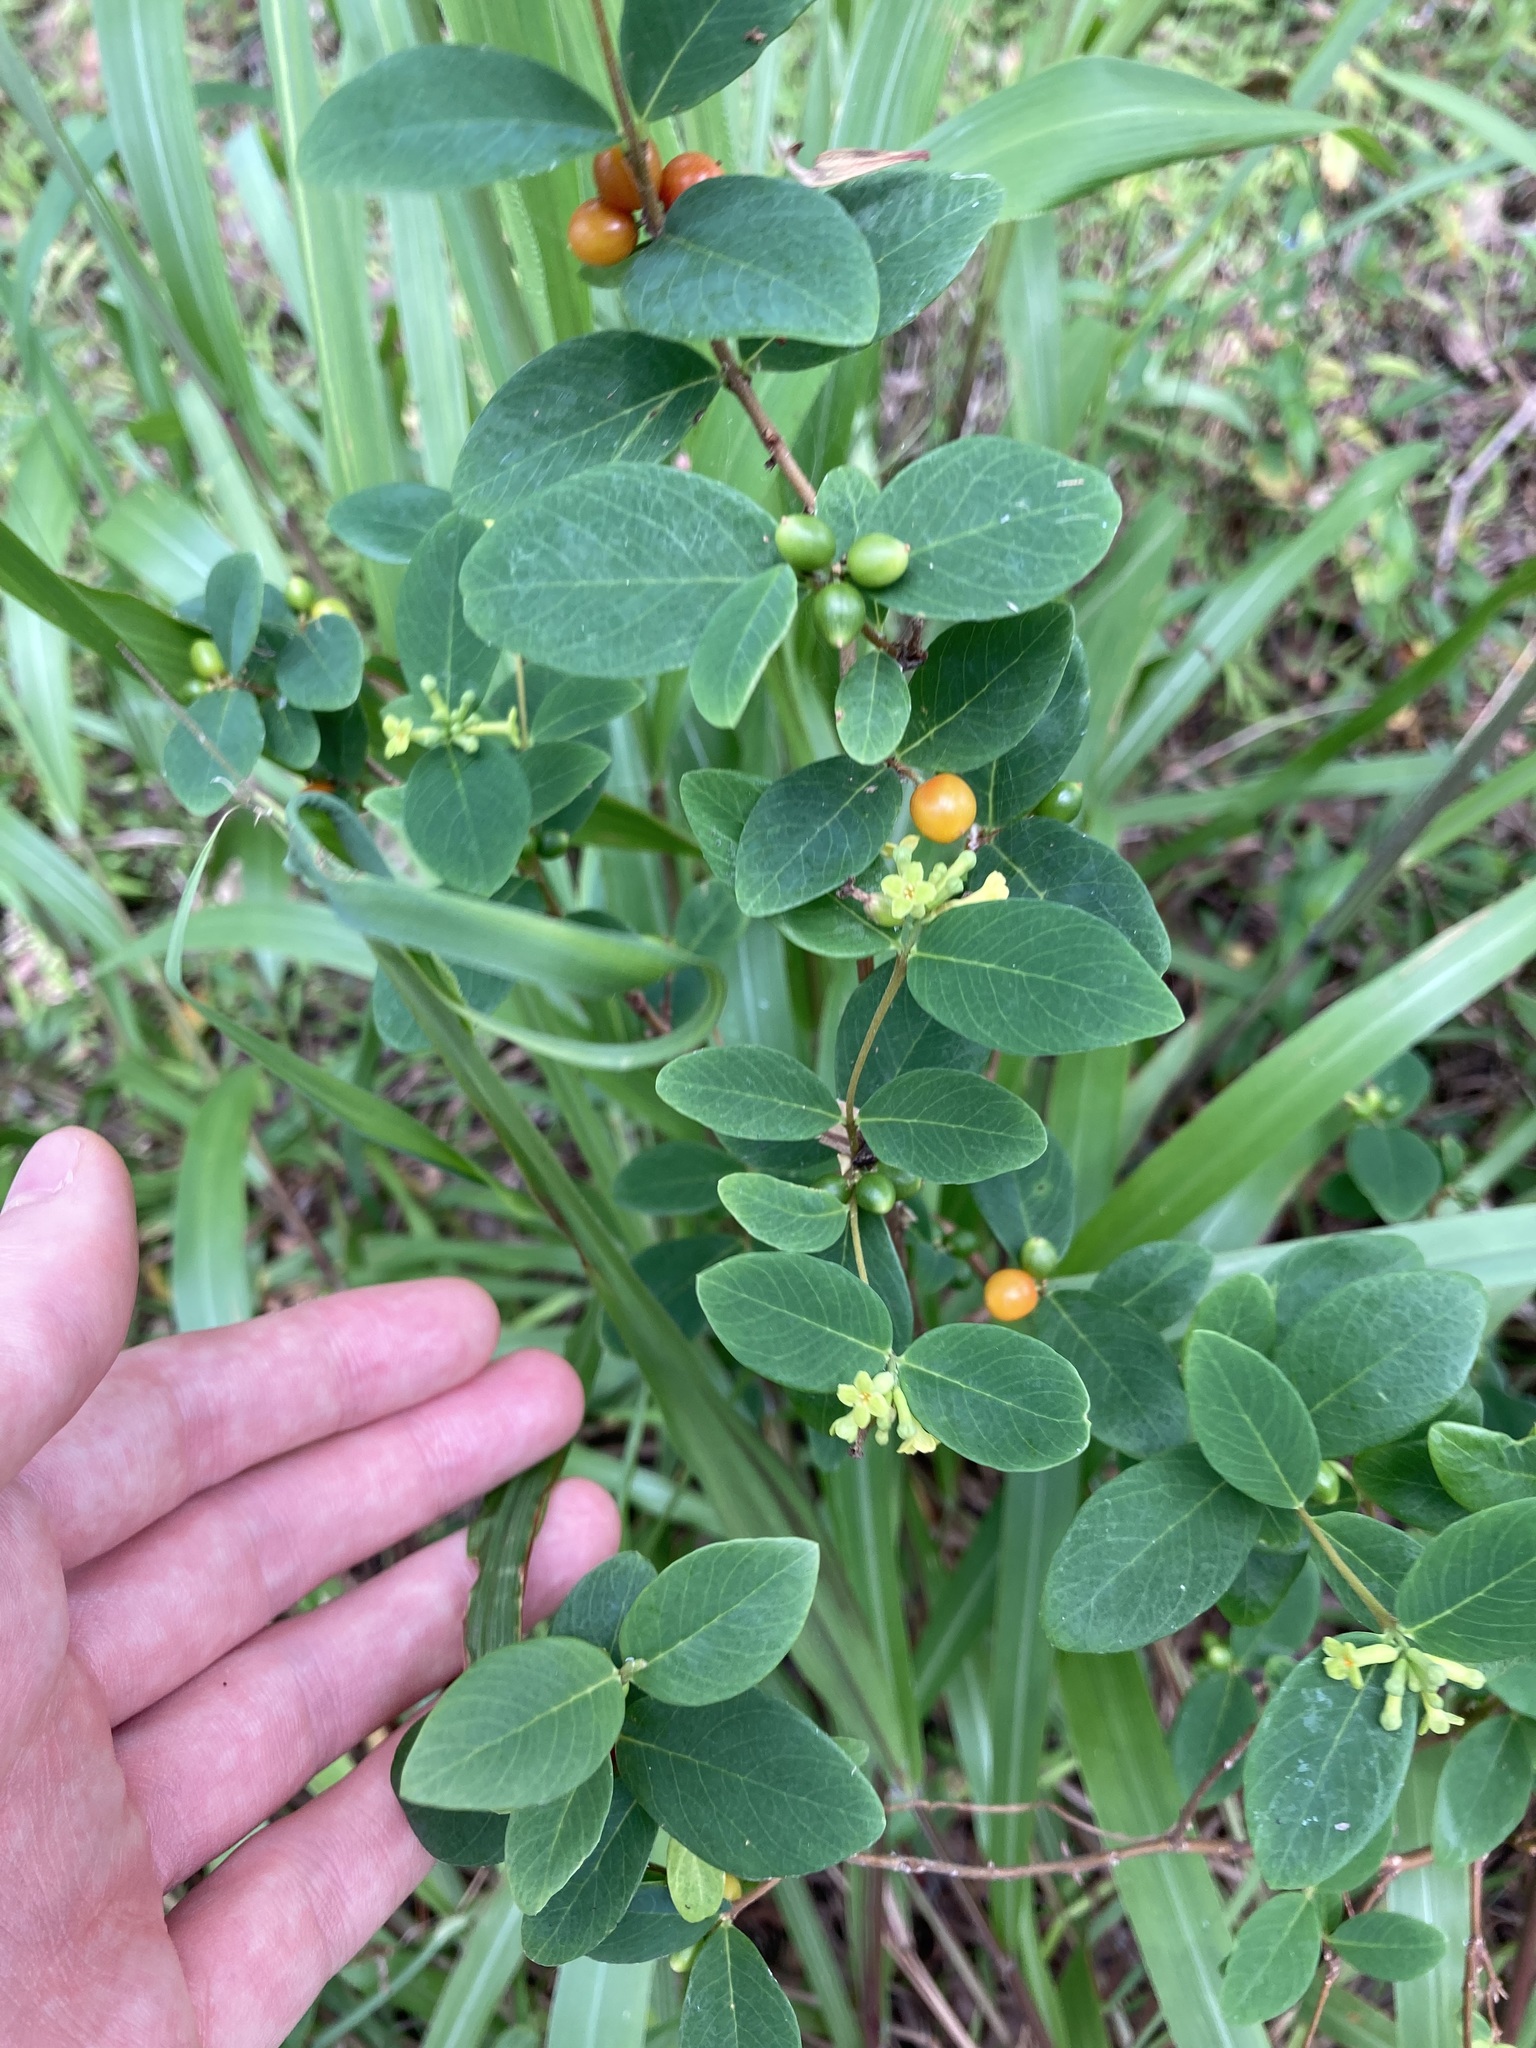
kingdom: Plantae
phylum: Tracheophyta
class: Magnoliopsida
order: Malvales
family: Thymelaeaceae
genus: Wikstroemia
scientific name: Wikstroemia indica
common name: Tiebush
